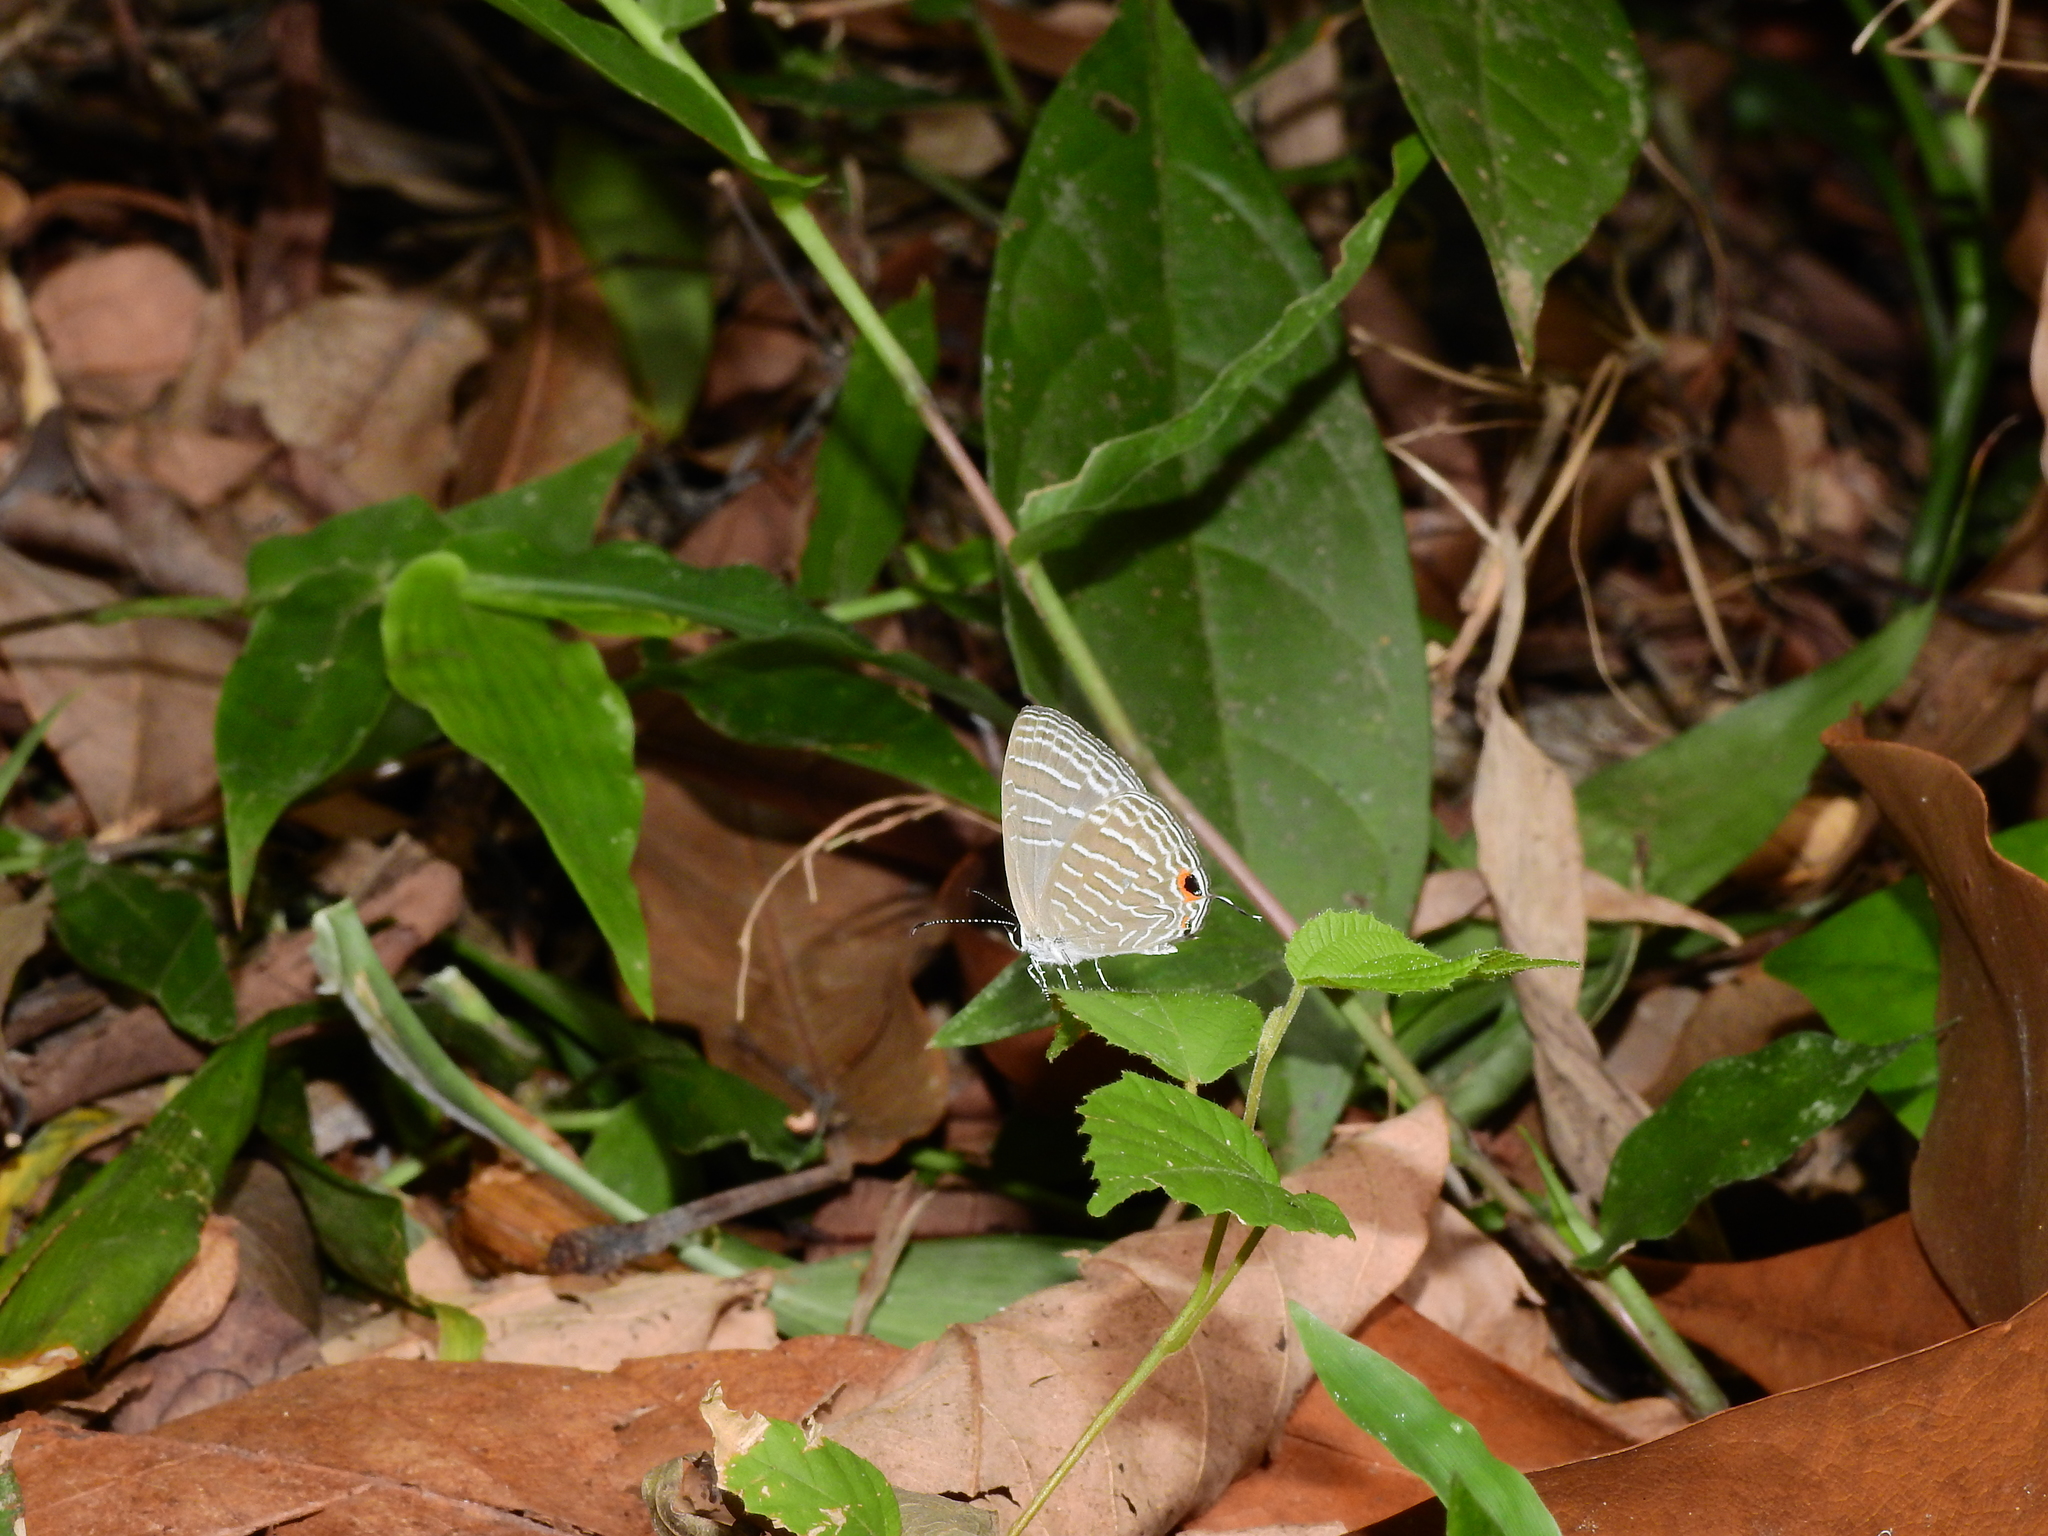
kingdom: Animalia
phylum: Arthropoda
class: Insecta
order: Lepidoptera
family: Lycaenidae
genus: Jamides
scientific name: Jamides celeno
